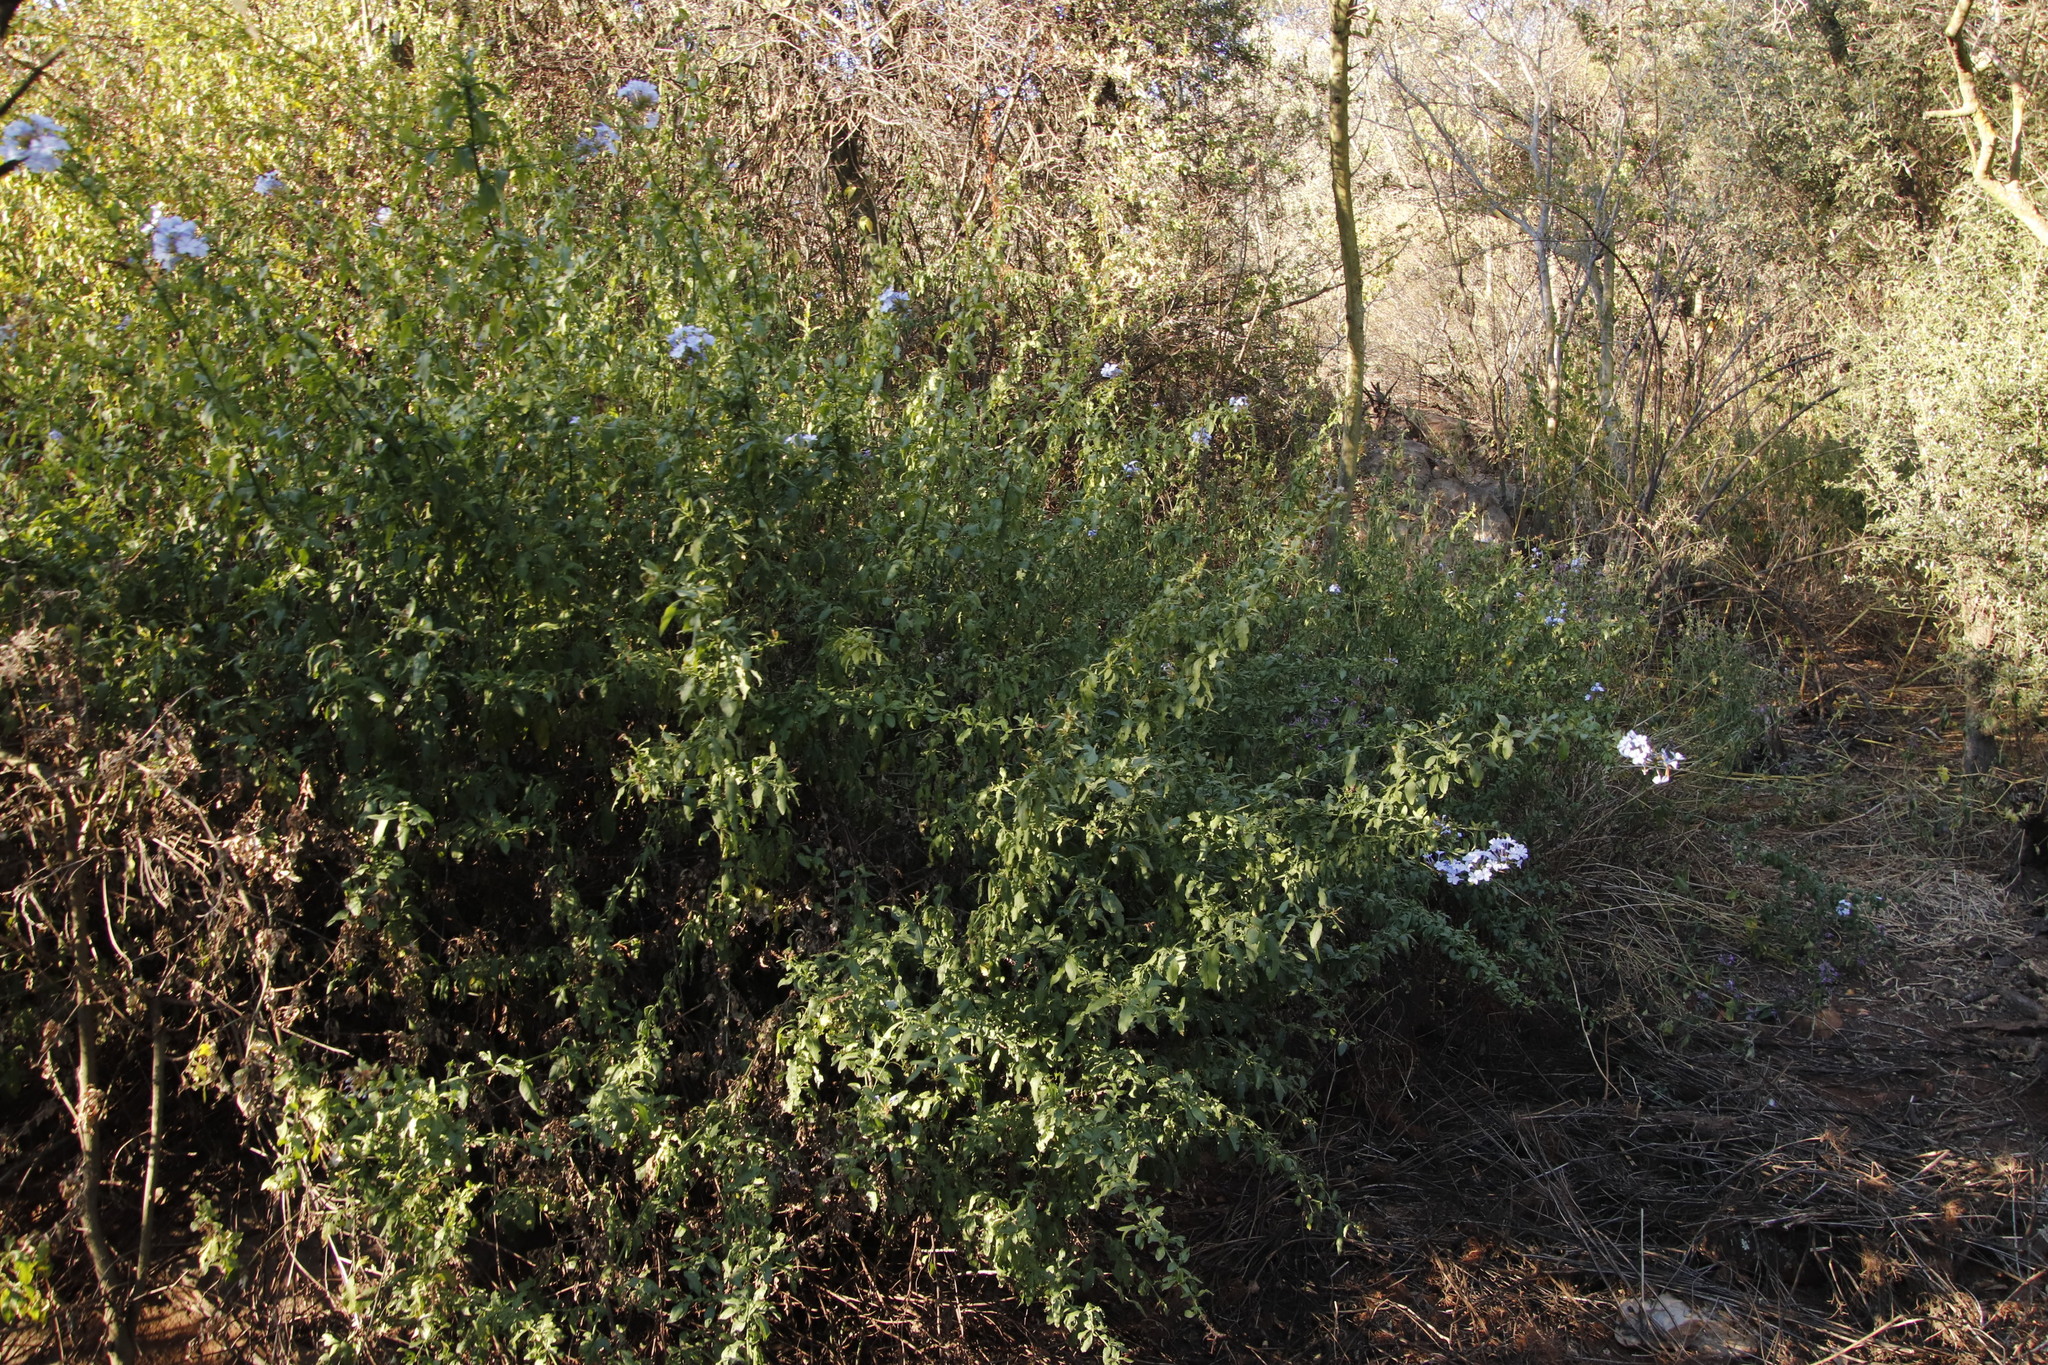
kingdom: Plantae
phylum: Tracheophyta
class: Magnoliopsida
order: Caryophyllales
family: Plumbaginaceae
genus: Plumbago
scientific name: Plumbago auriculata
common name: Cape leadwort
